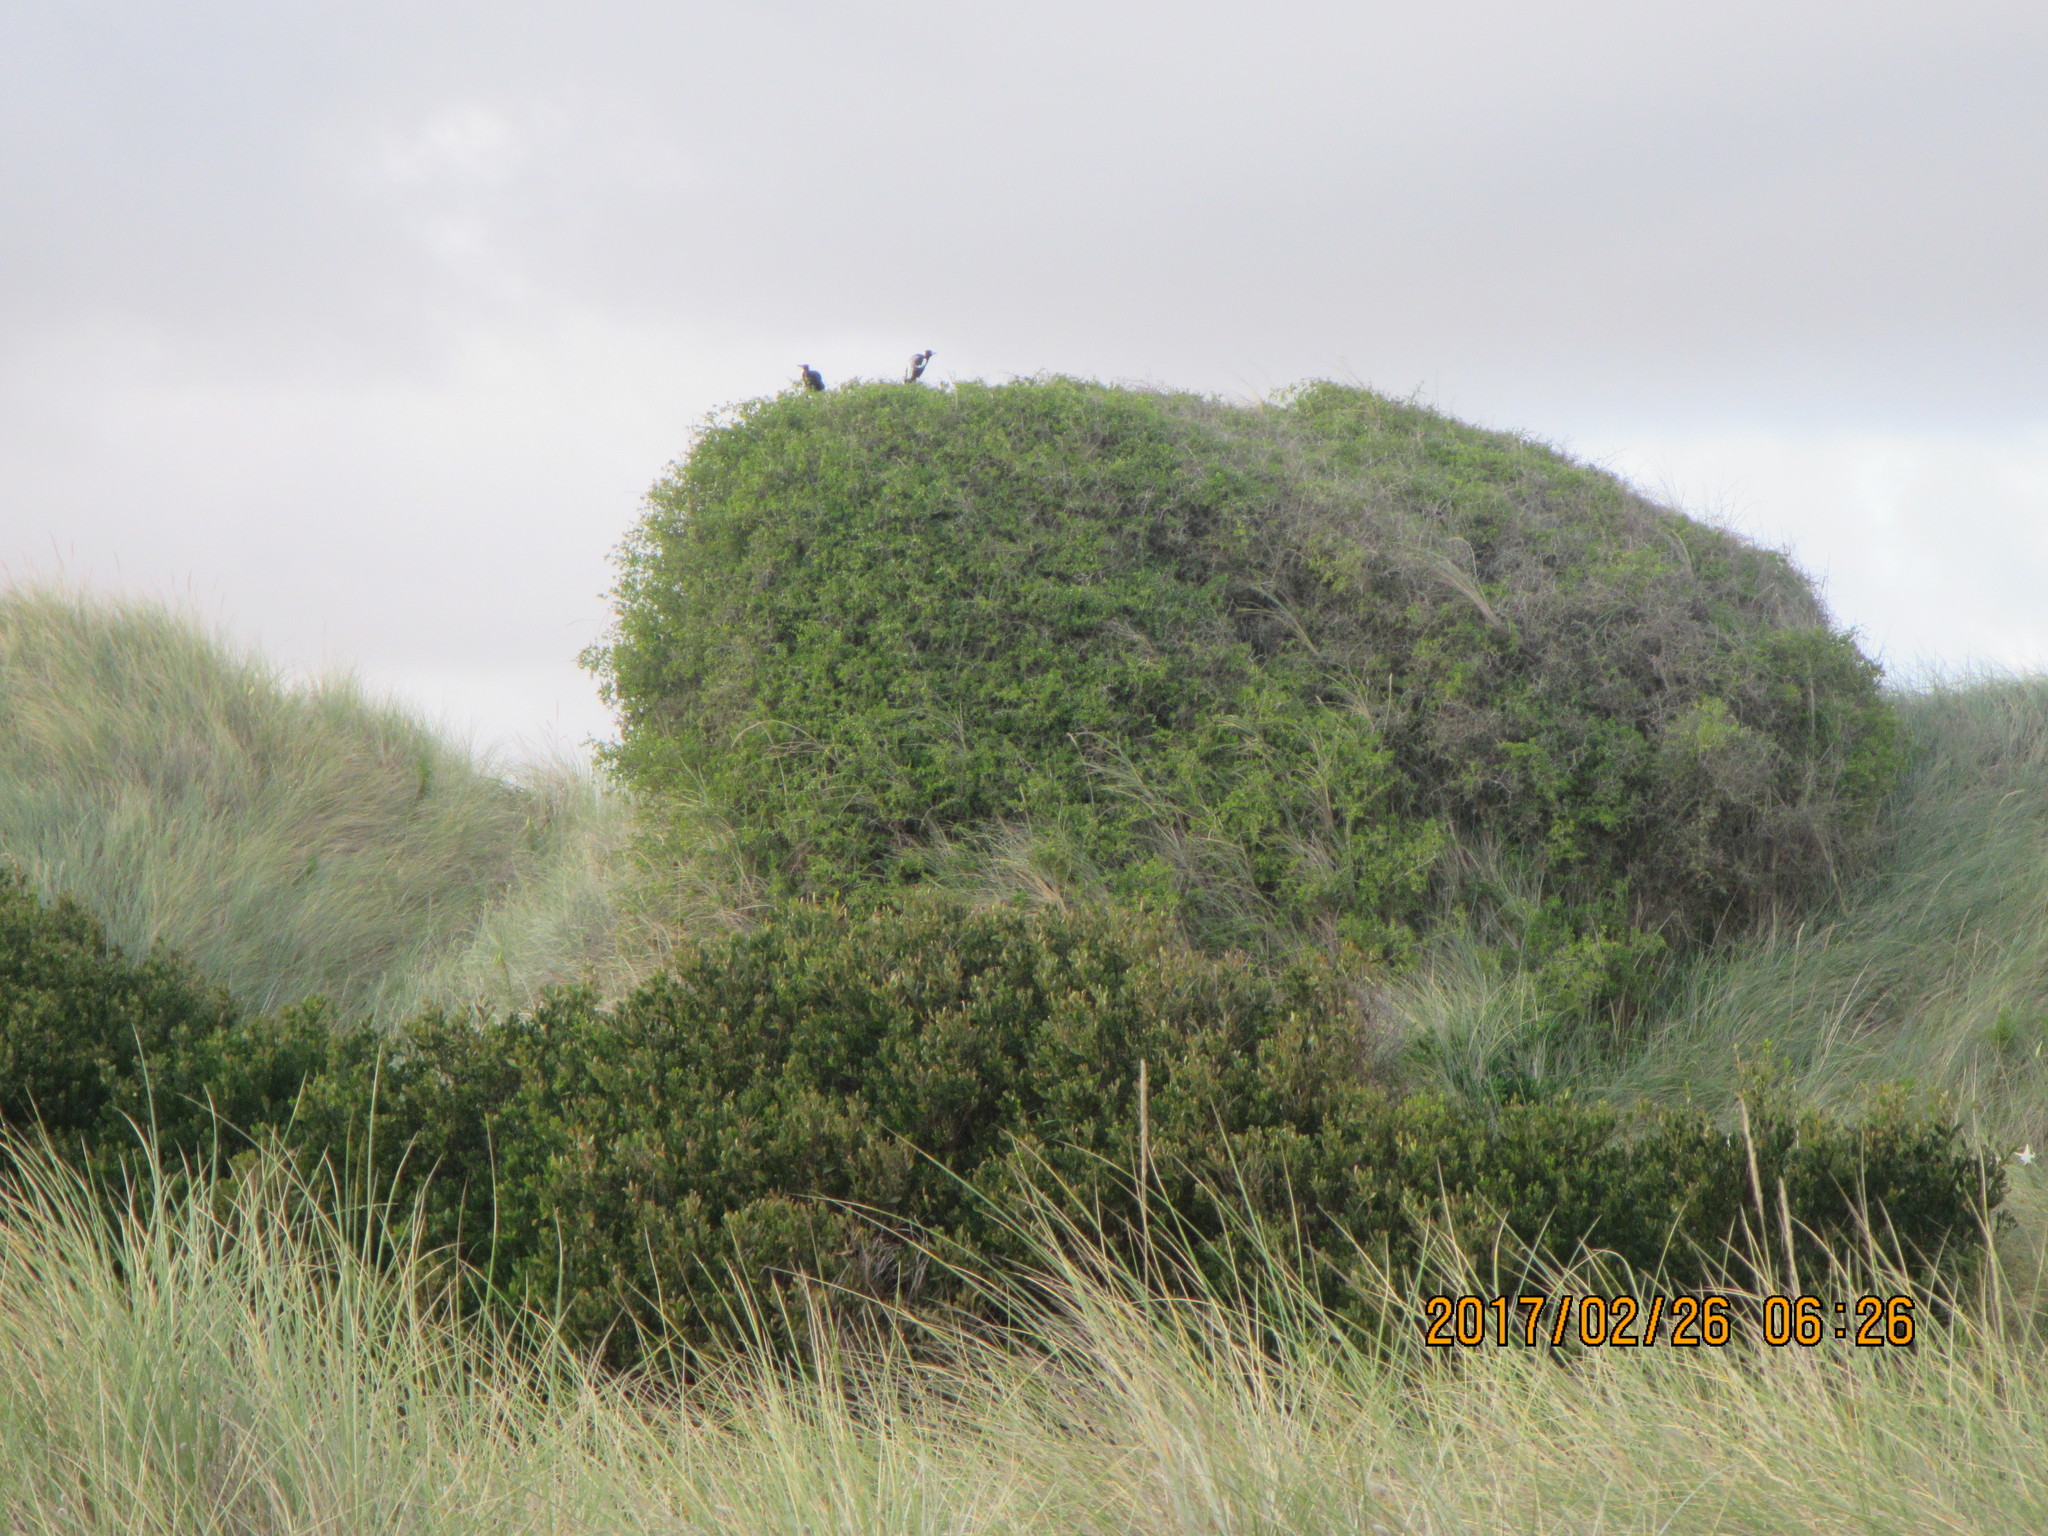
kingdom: Animalia
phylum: Chordata
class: Aves
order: Passeriformes
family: Cracticidae
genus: Gymnorhina
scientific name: Gymnorhina tibicen
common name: Australian magpie
